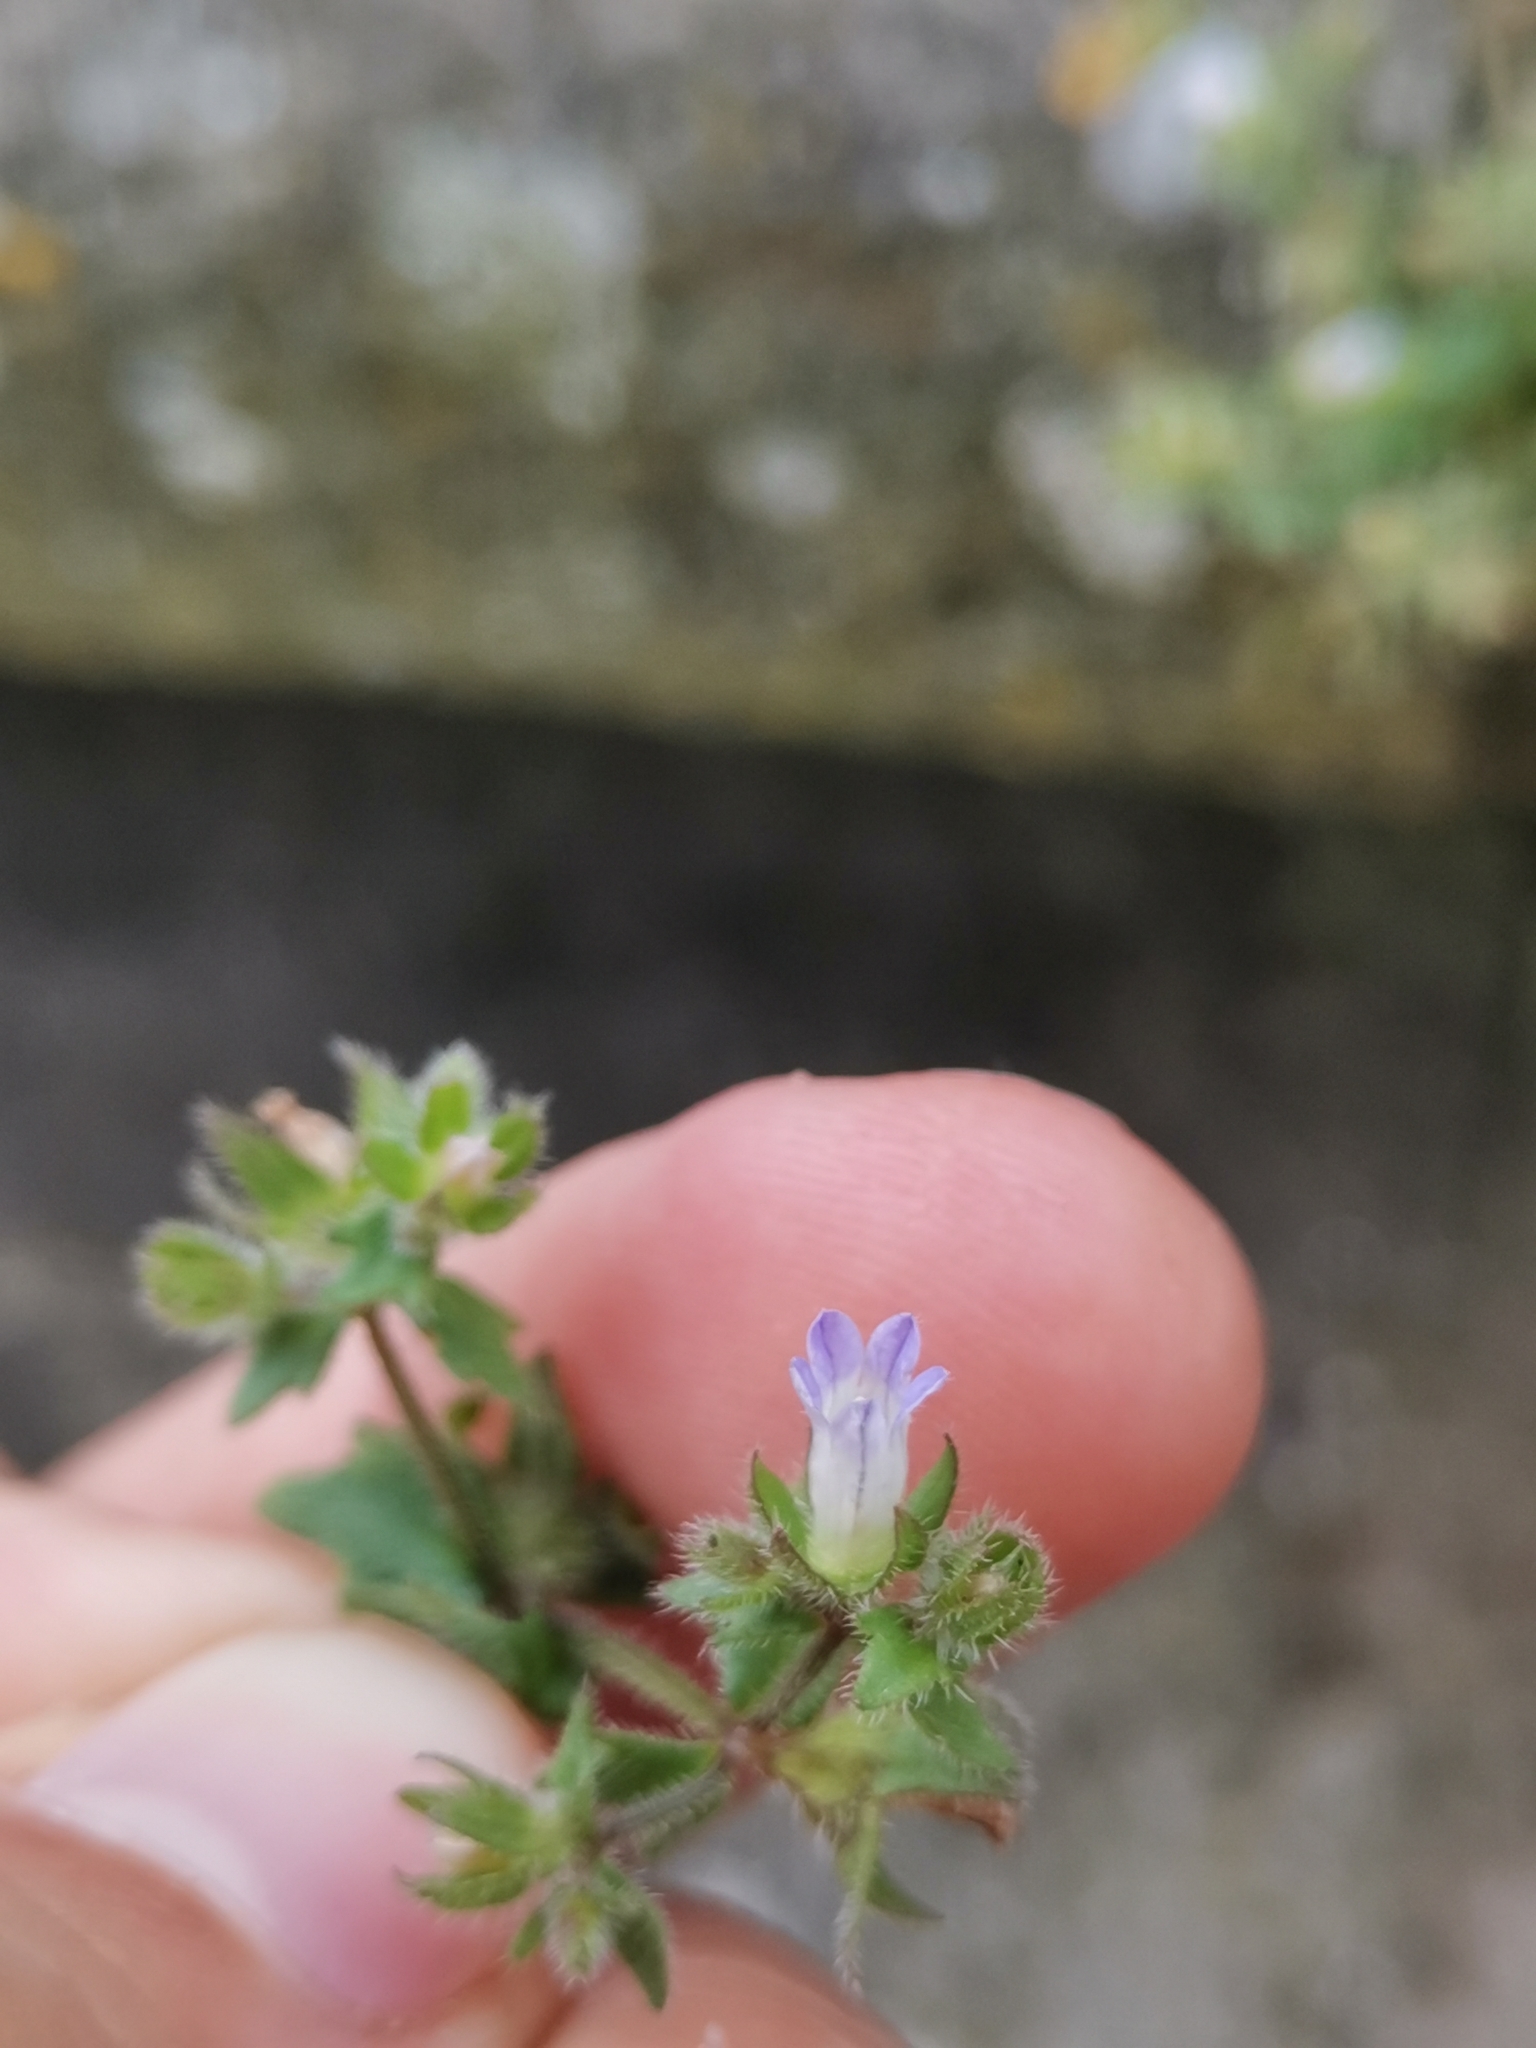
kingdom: Plantae
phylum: Tracheophyta
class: Magnoliopsida
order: Asterales
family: Campanulaceae
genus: Campanula
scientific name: Campanula erinus
